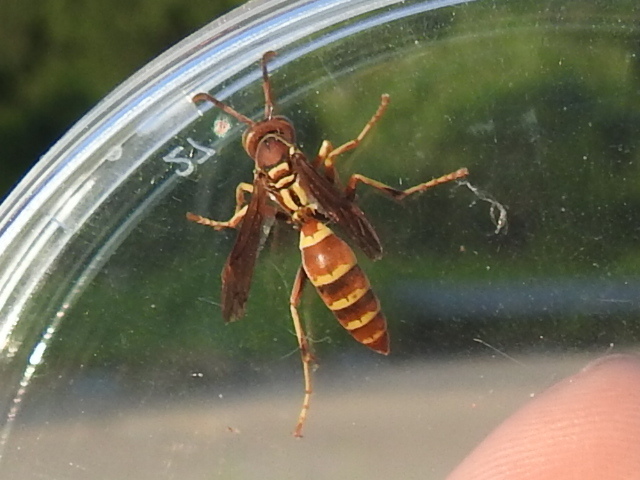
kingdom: Animalia
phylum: Arthropoda
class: Insecta
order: Hymenoptera
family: Eumenidae
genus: Polistes
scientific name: Polistes dorsalis
